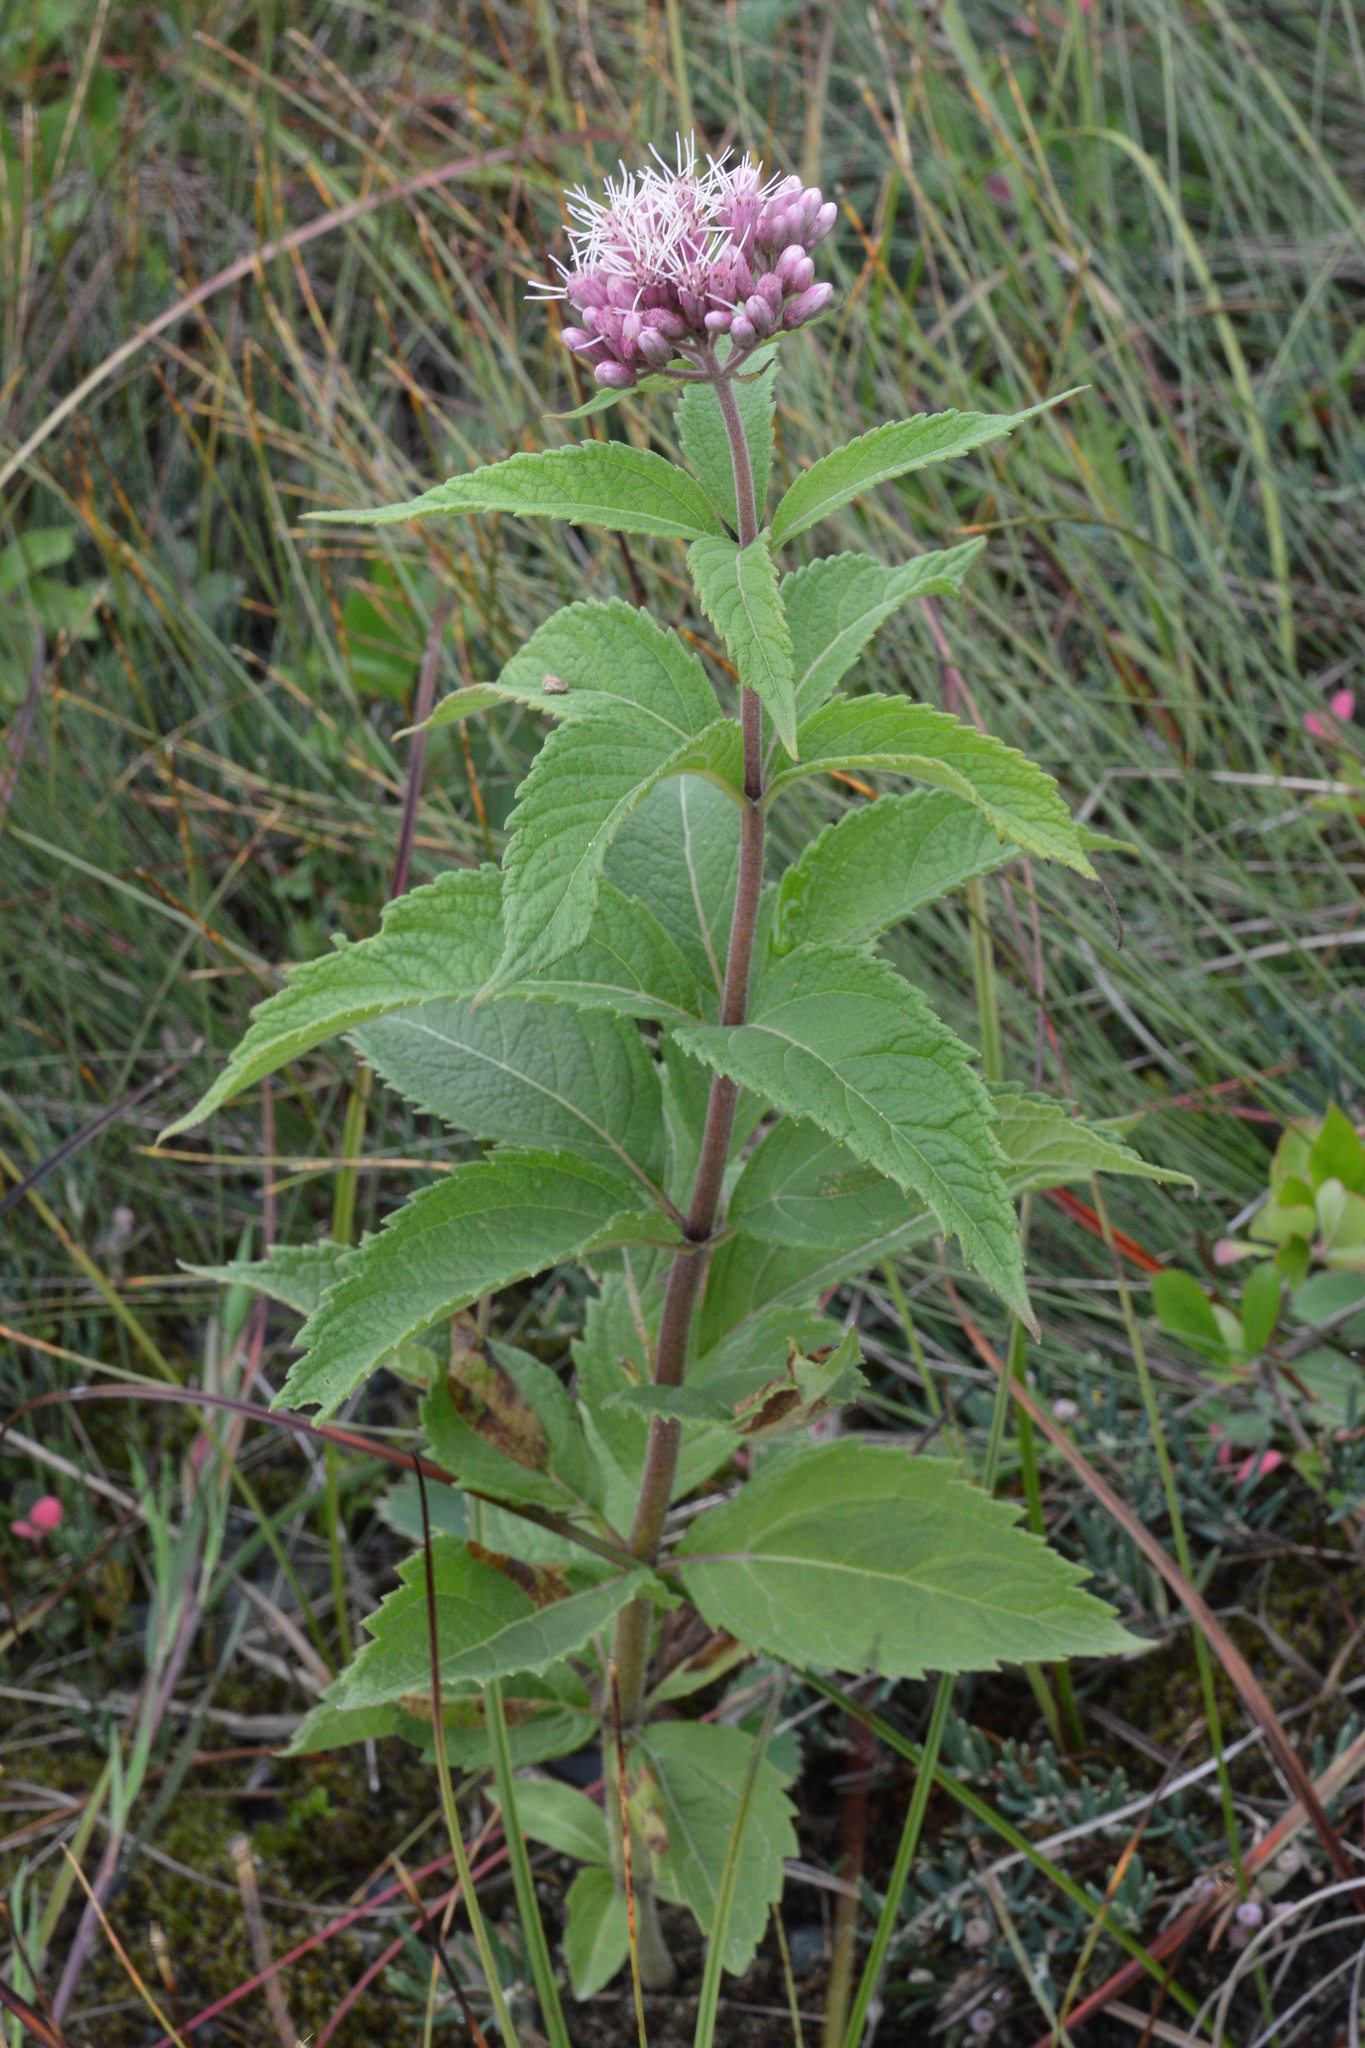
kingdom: Plantae
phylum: Tracheophyta
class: Magnoliopsida
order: Asterales
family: Asteraceae
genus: Eutrochium
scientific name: Eutrochium maculatum
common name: Spotted joe pye weed
